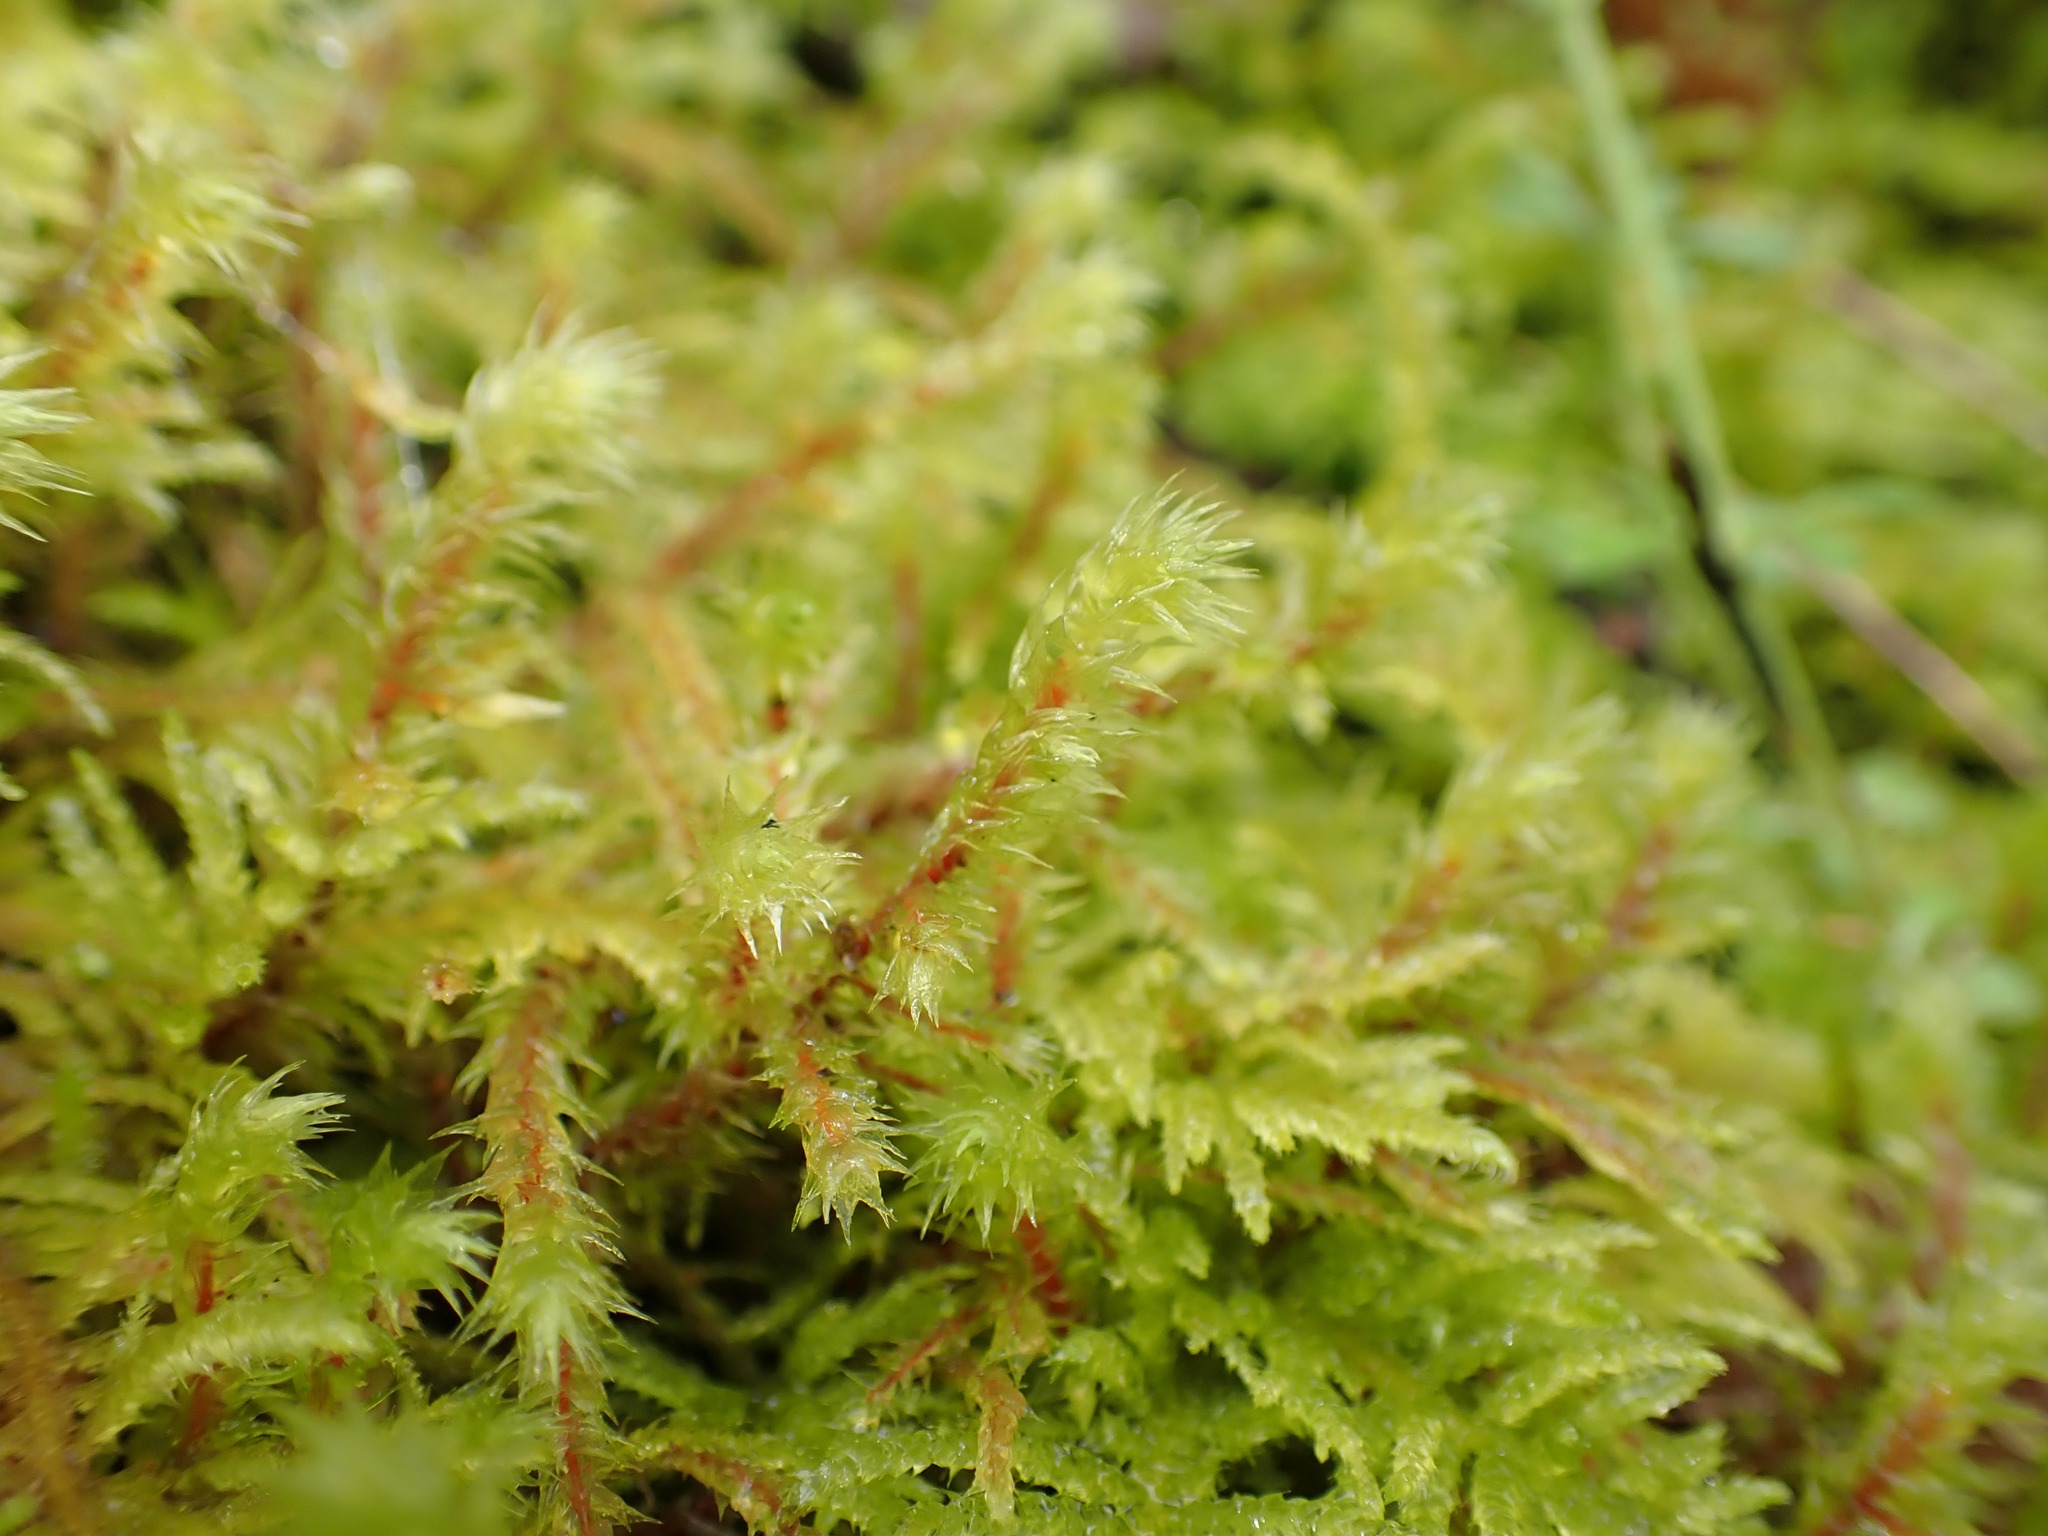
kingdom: Plantae
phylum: Bryophyta
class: Bryopsida
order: Hypnales
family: Hylocomiaceae
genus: Hylocomiadelphus
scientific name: Hylocomiadelphus triquetrus
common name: Rough goose neck moss
